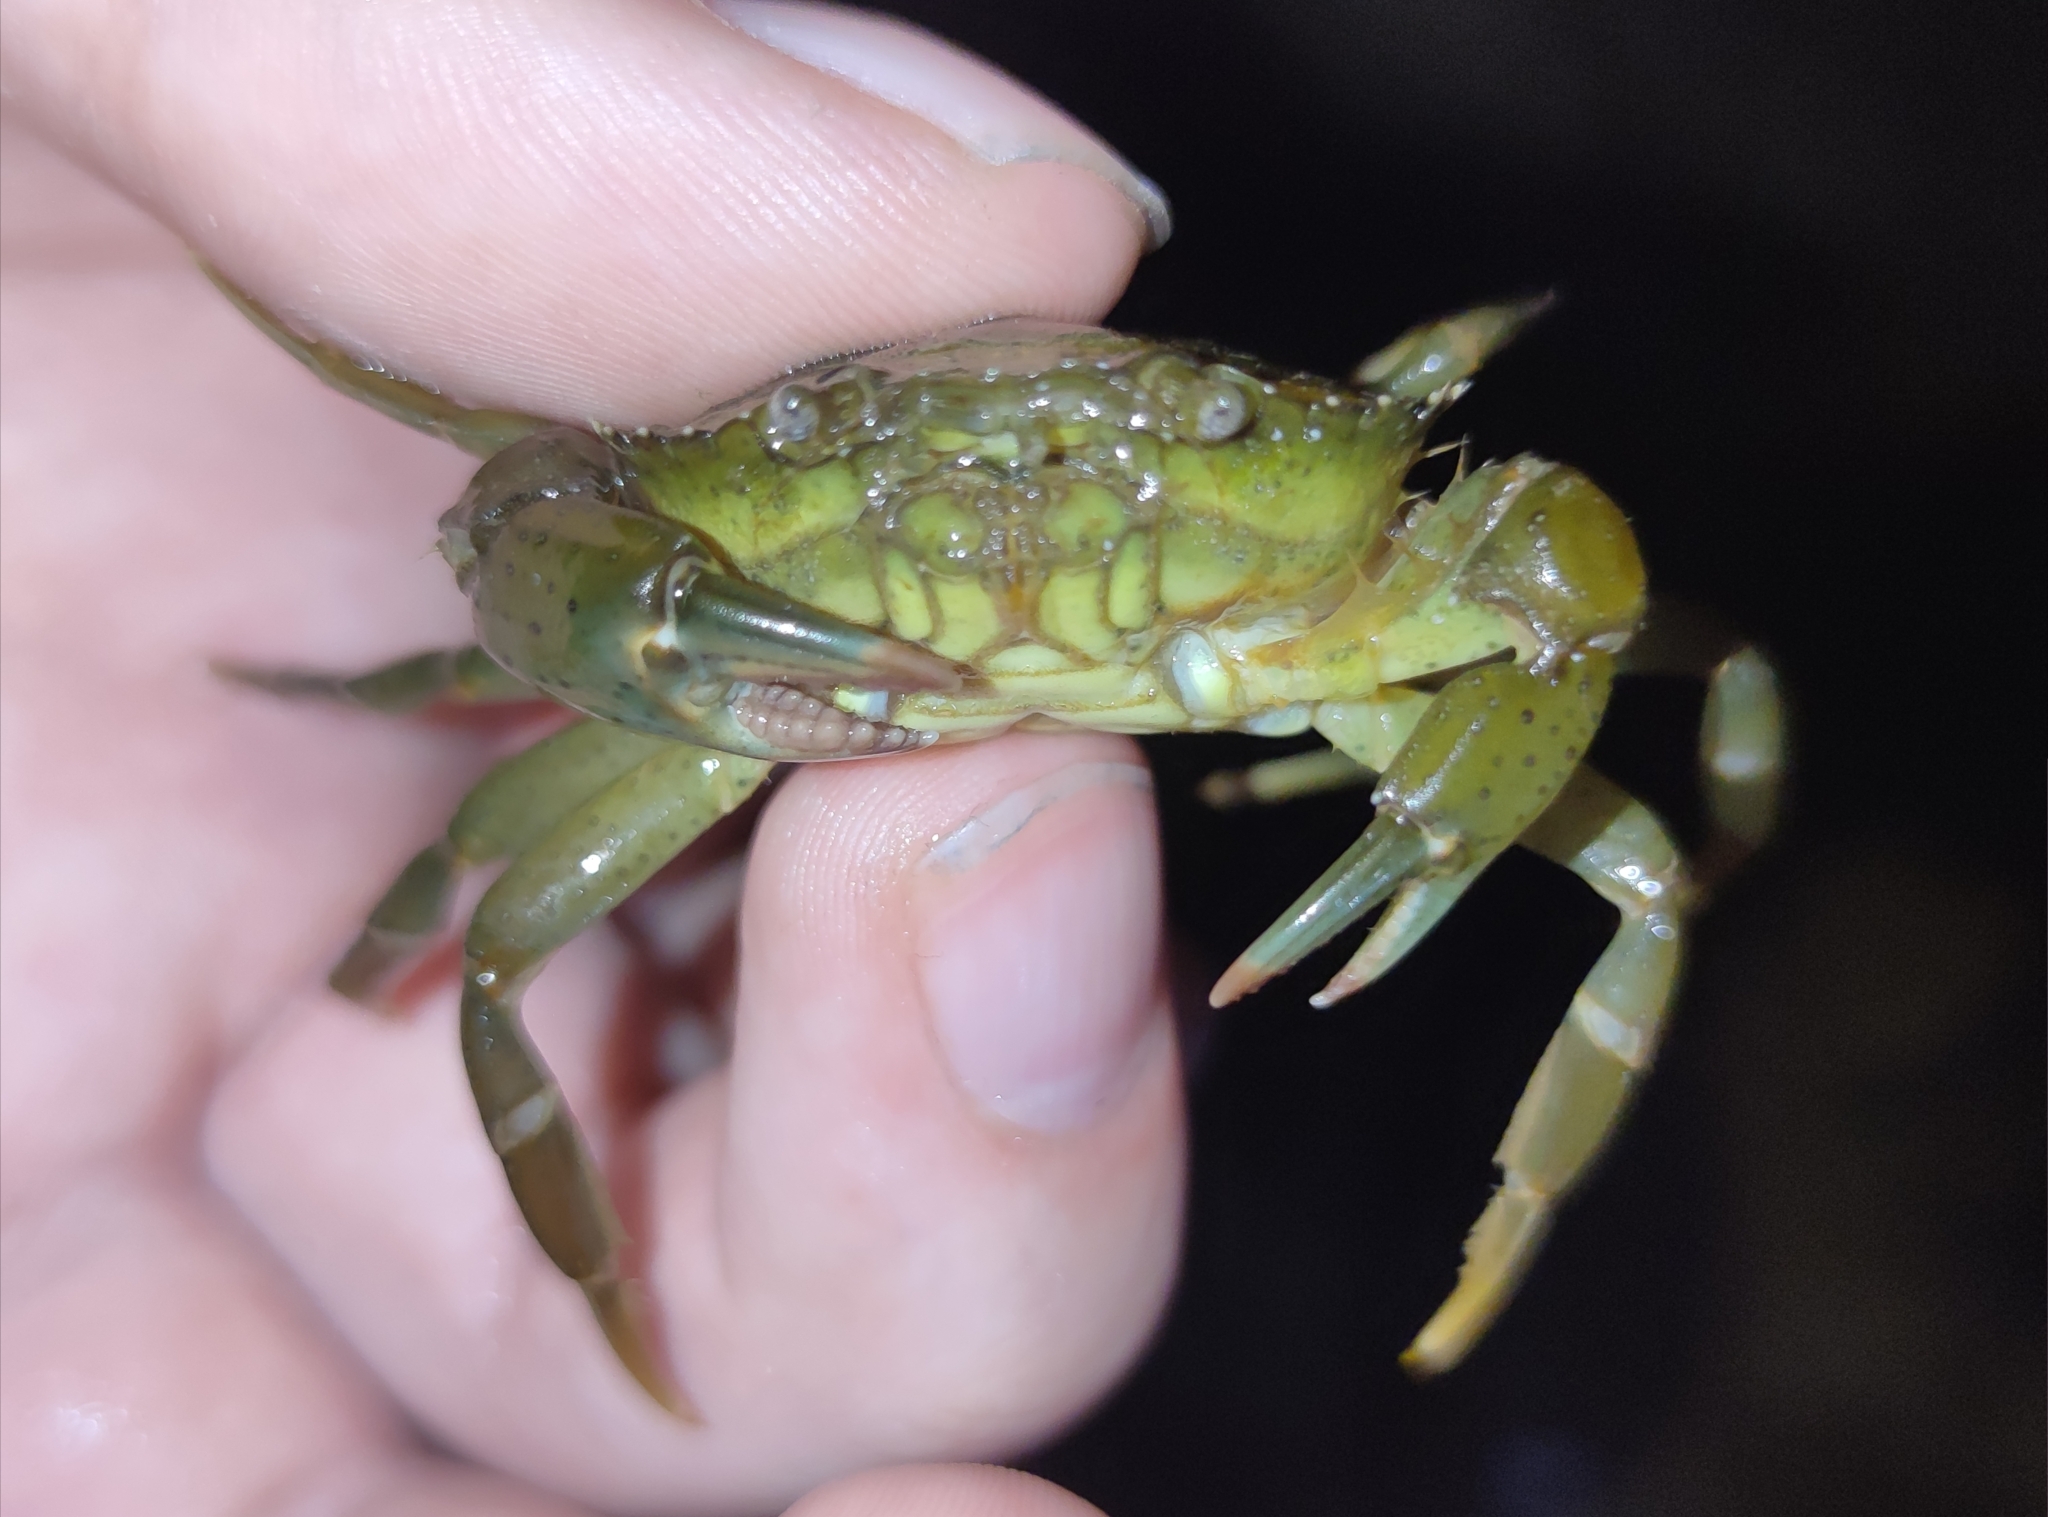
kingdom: Animalia
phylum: Arthropoda
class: Malacostraca
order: Decapoda
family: Carcinidae
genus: Carcinus
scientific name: Carcinus aestuarii
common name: Mediterranean green crab
